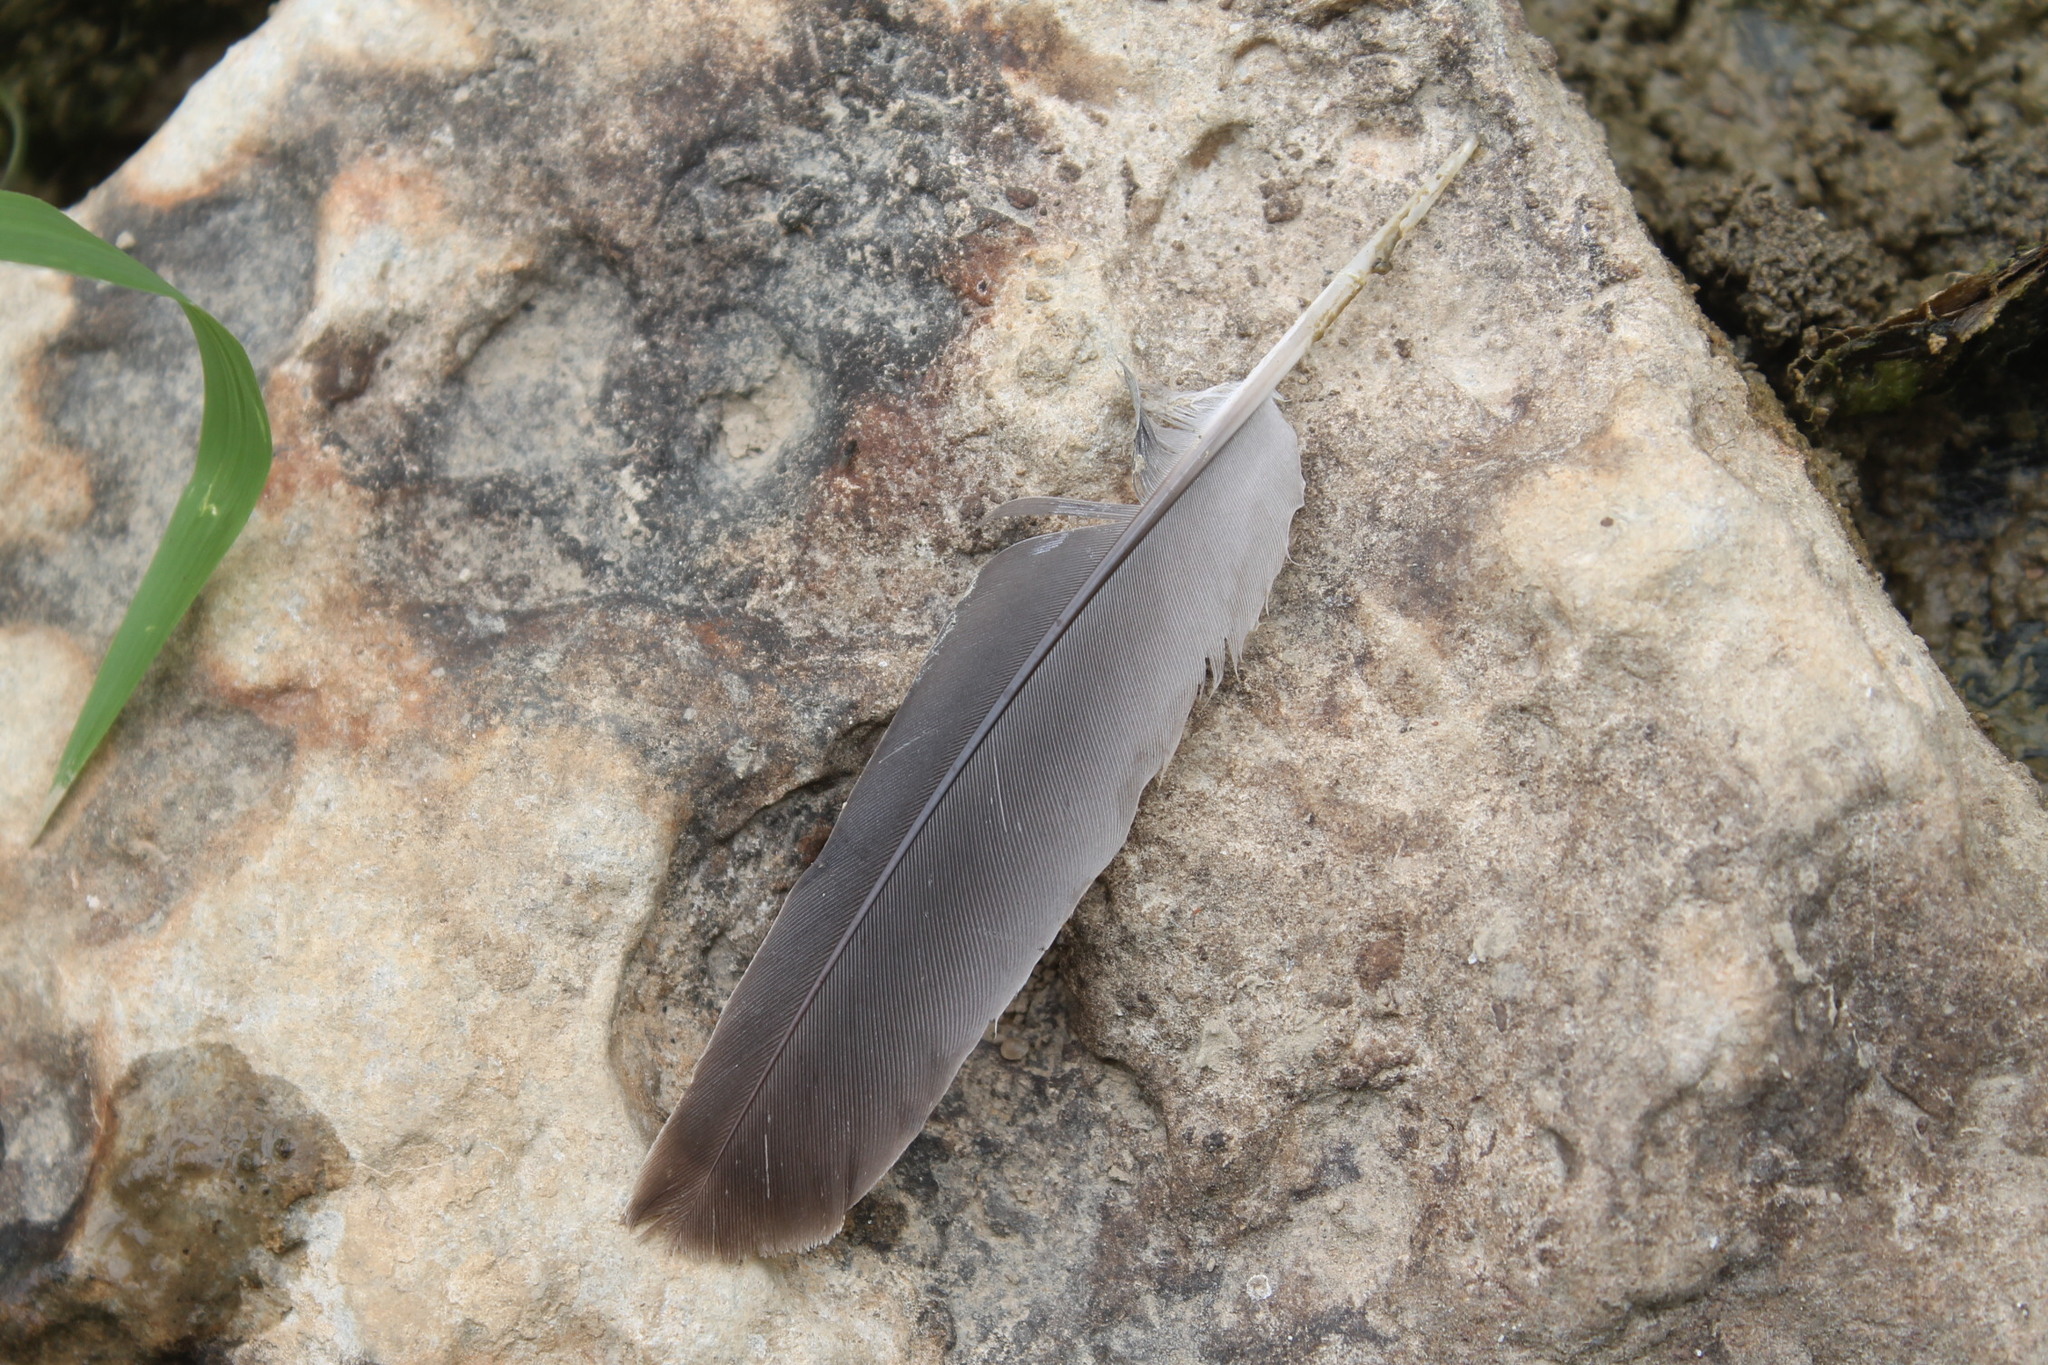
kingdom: Animalia
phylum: Chordata
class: Aves
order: Columbiformes
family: Columbidae
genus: Zenaida
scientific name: Zenaida macroura
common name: Mourning dove
